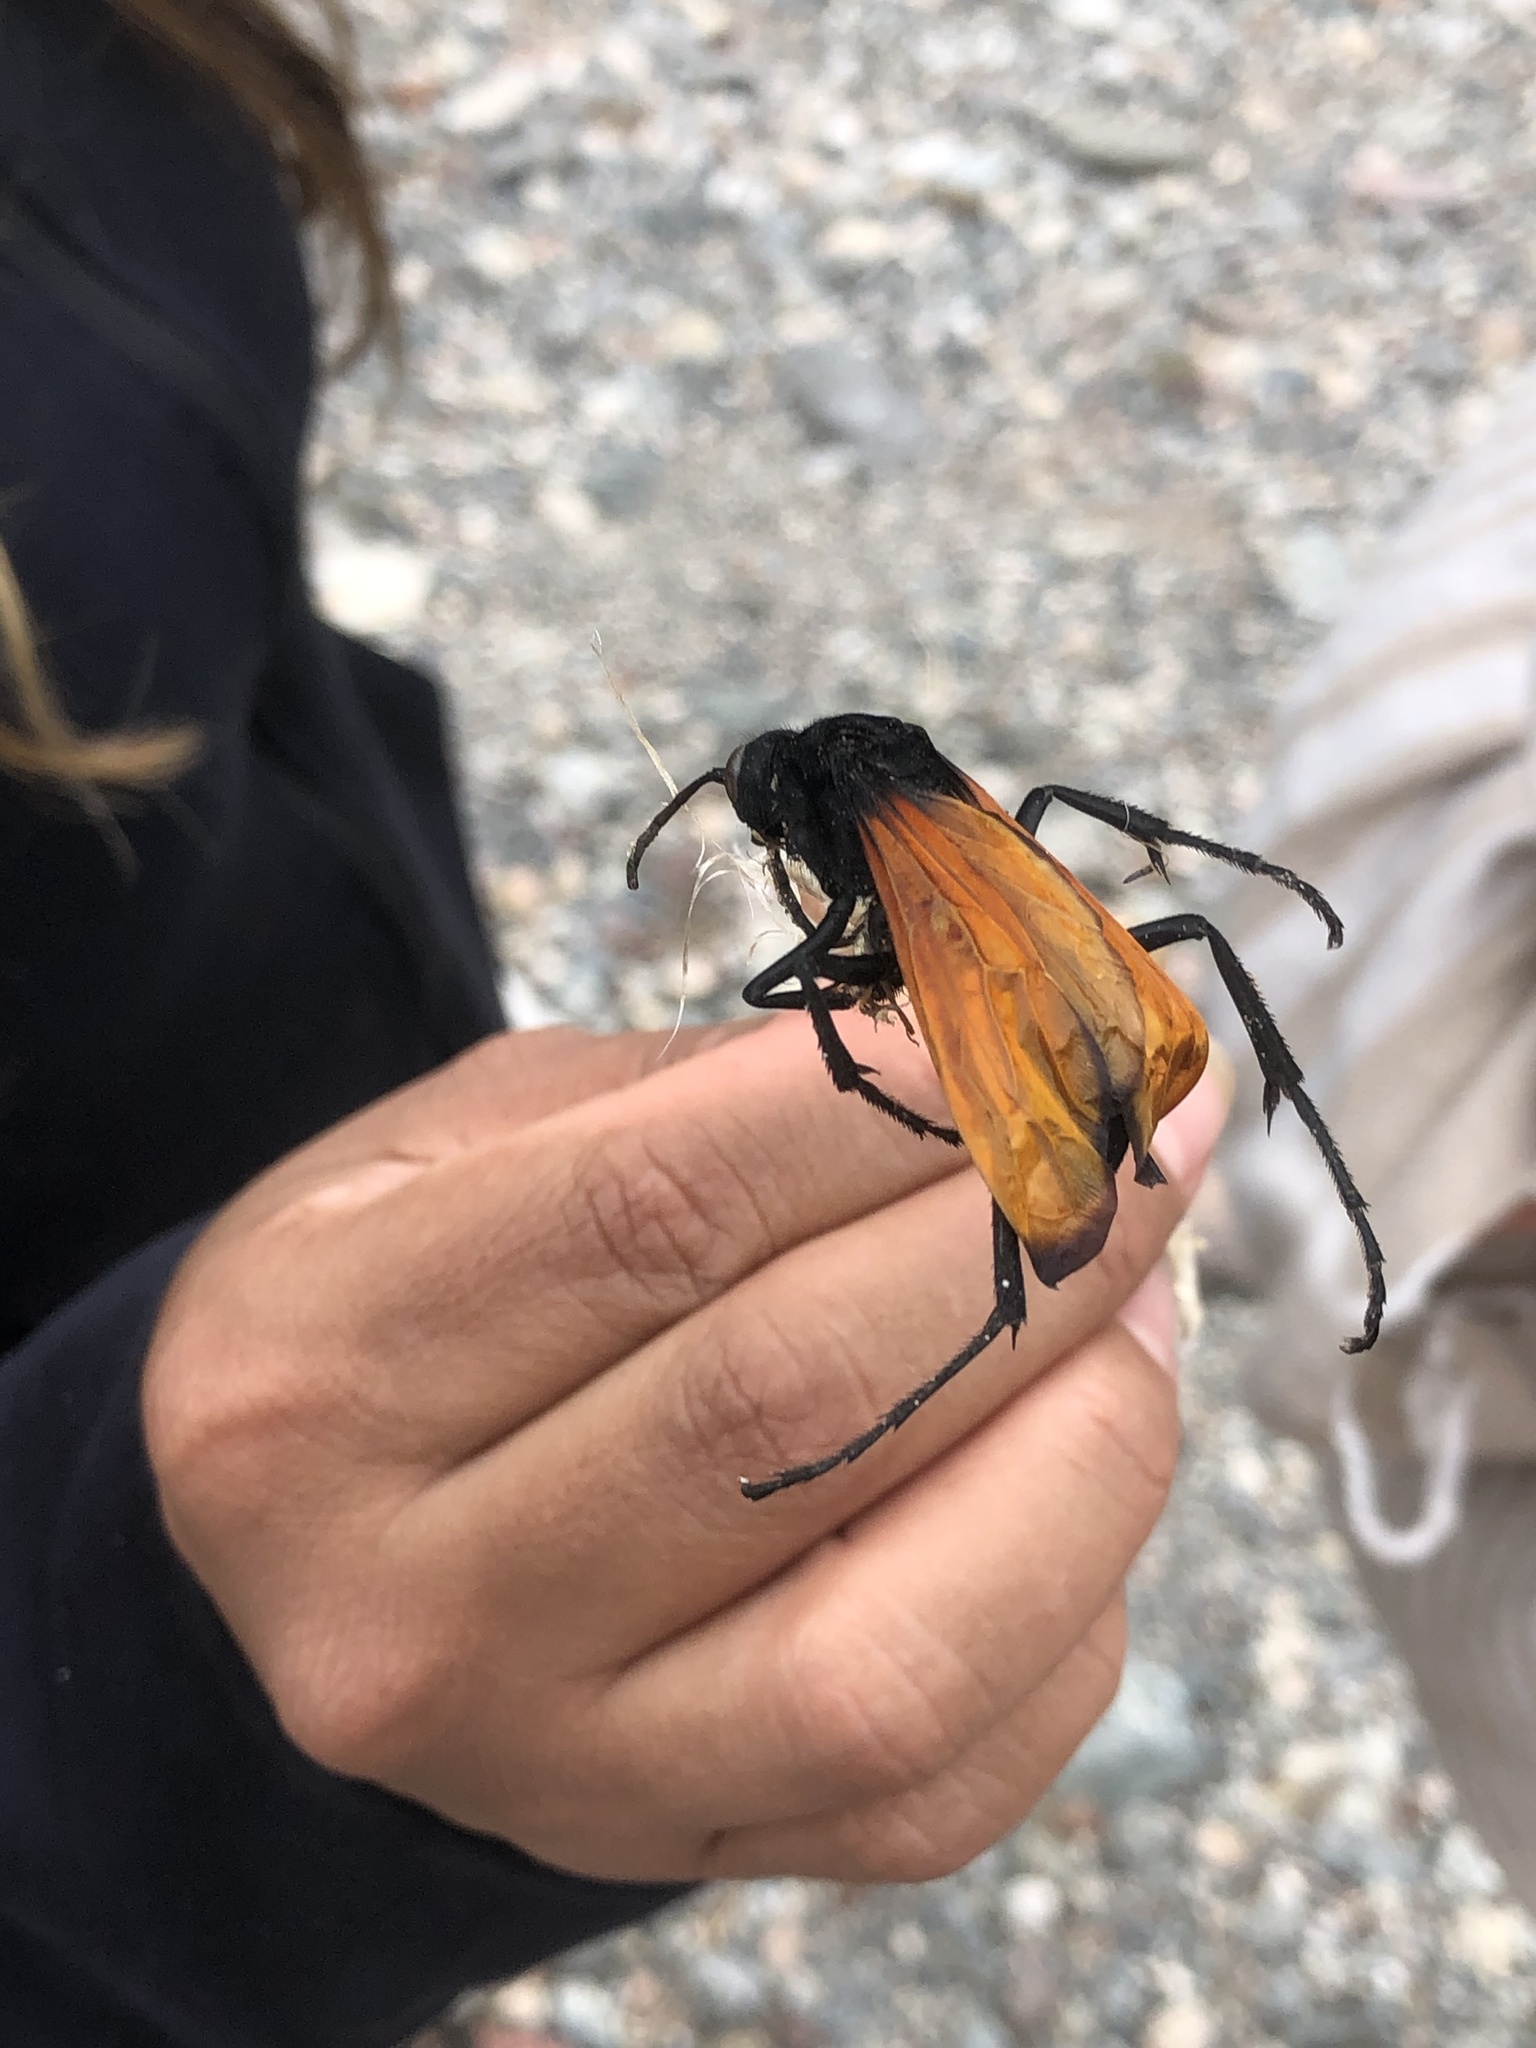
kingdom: Animalia
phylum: Arthropoda
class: Insecta
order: Hymenoptera
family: Pompilidae
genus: Pepsis
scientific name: Pepsis thisbe
